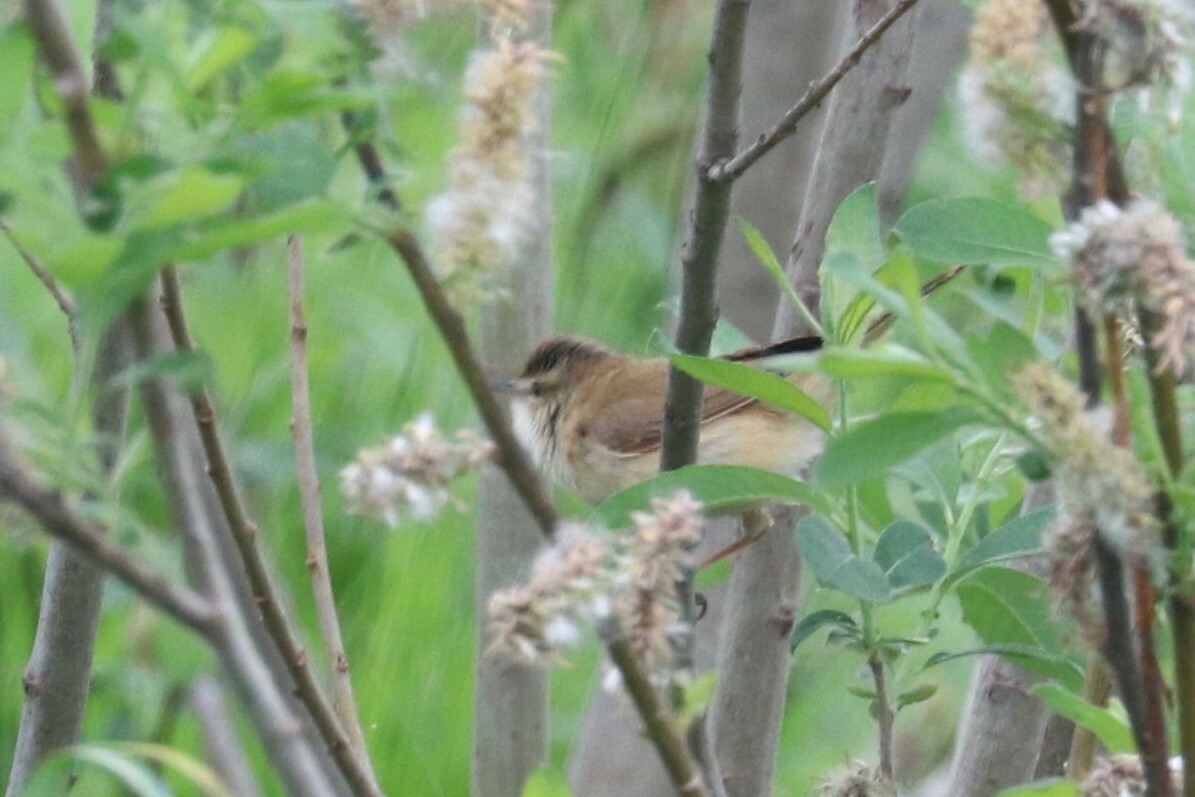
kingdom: Animalia
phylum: Chordata
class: Aves
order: Passeriformes
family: Acrocephalidae
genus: Iduna
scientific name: Iduna caligata
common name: Booted warbler
